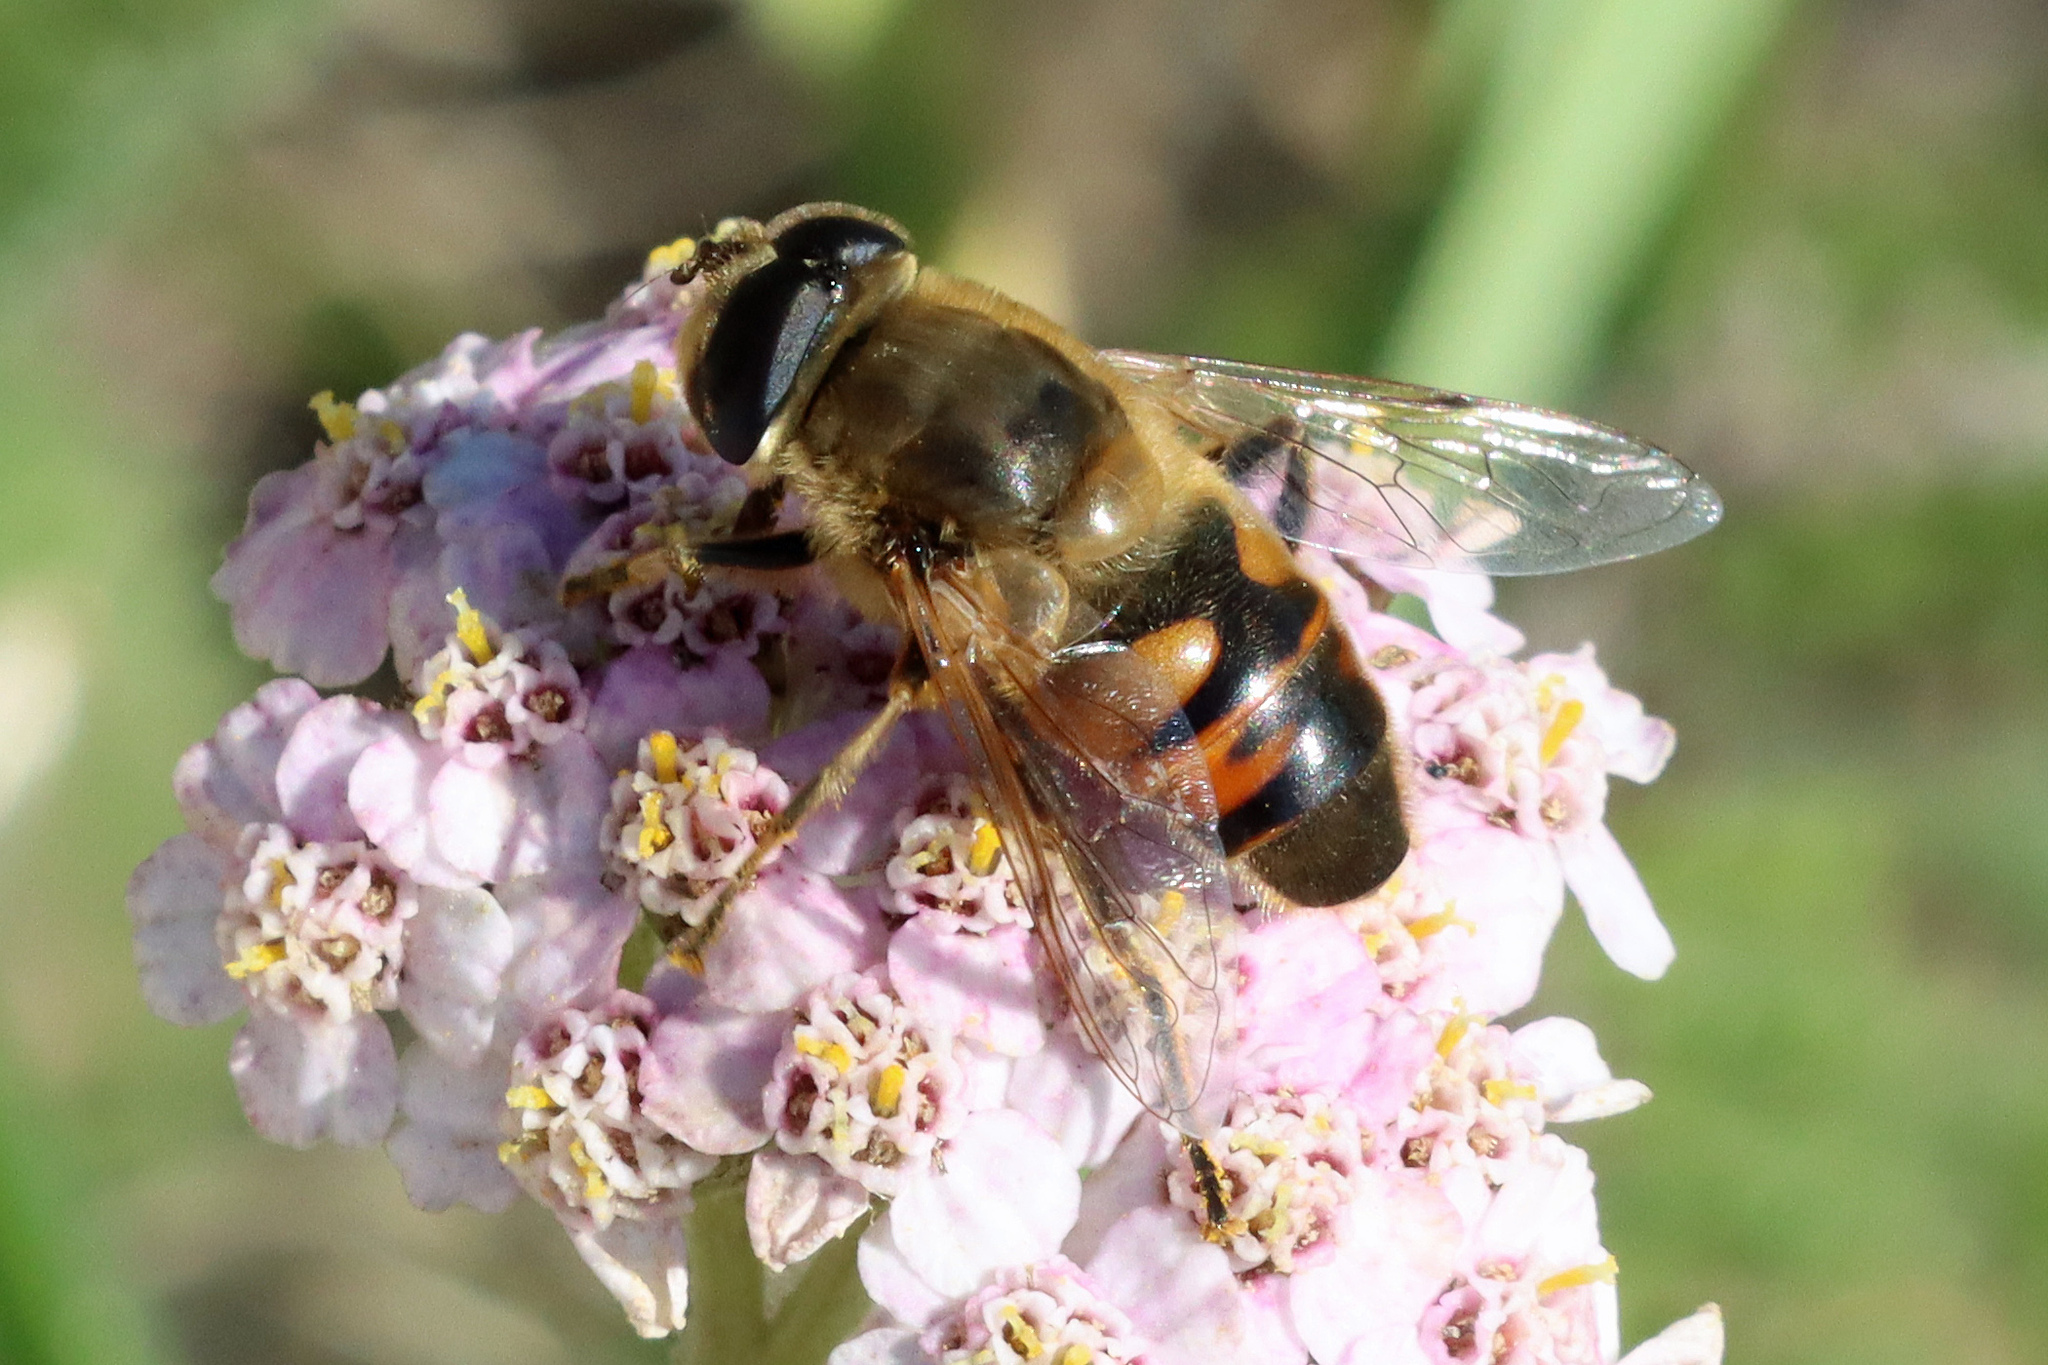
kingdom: Animalia
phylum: Arthropoda
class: Insecta
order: Diptera
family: Syrphidae
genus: Eristalis
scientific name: Eristalis tenax
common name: Drone fly
